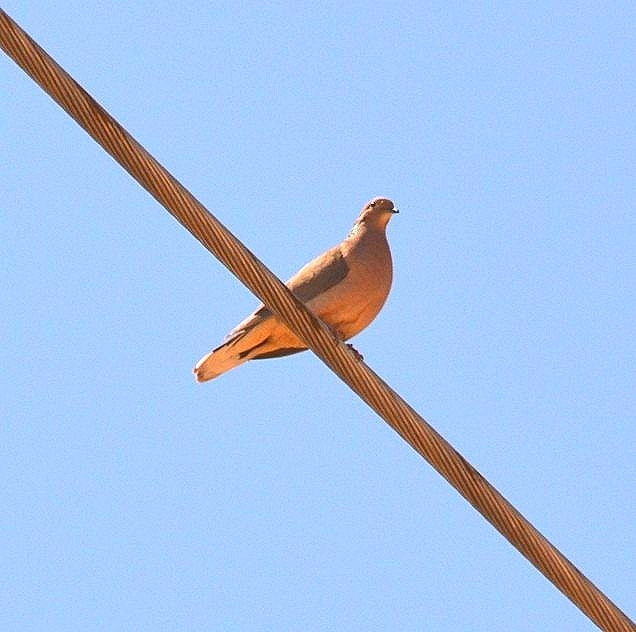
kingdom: Animalia
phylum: Chordata
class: Aves
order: Columbiformes
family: Columbidae
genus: Zenaida
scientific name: Zenaida auriculata
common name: Eared dove
